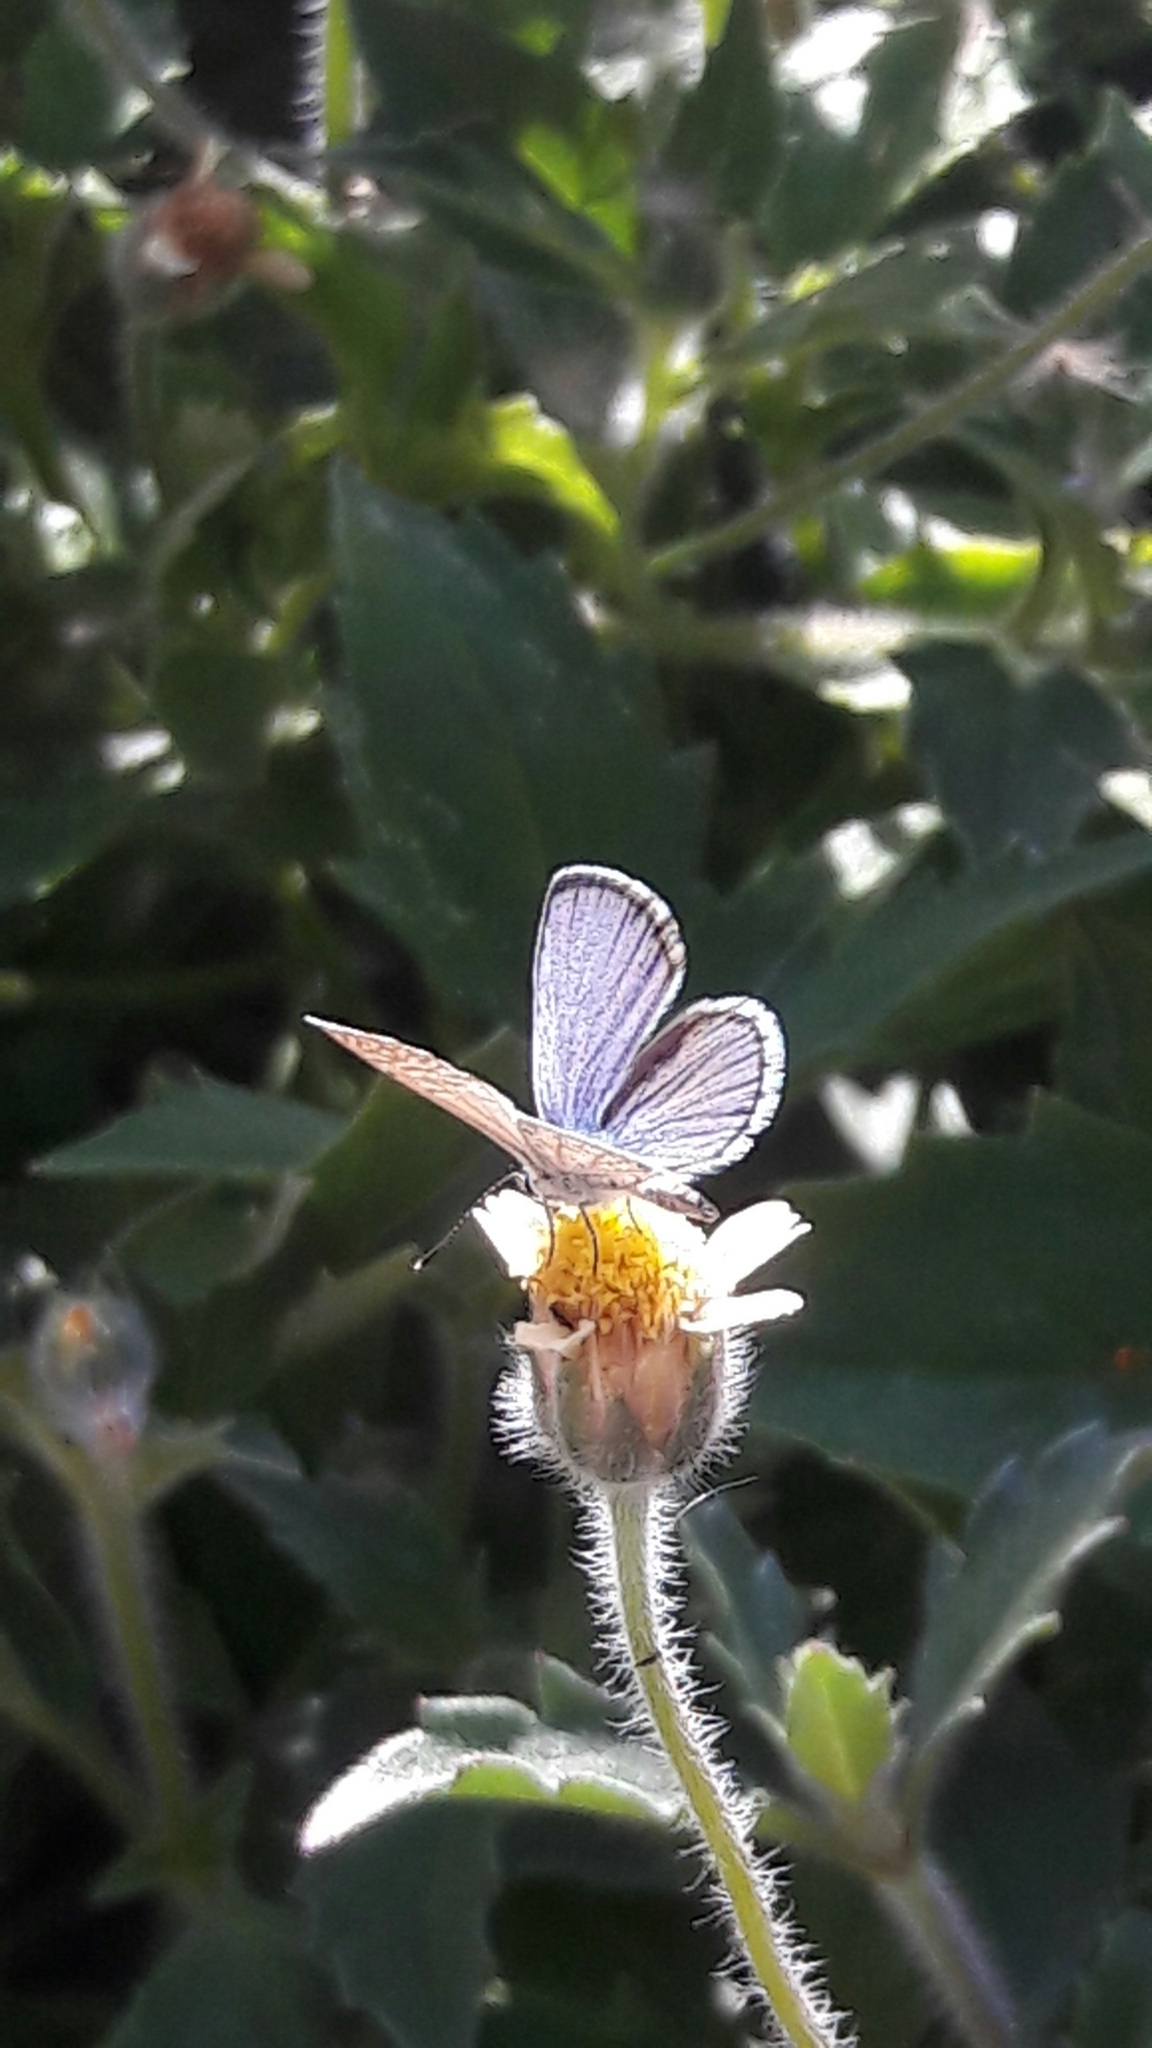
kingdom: Animalia
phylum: Arthropoda
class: Insecta
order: Lepidoptera
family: Lycaenidae
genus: Hemiargus
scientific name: Hemiargus hanno
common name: Common blue
